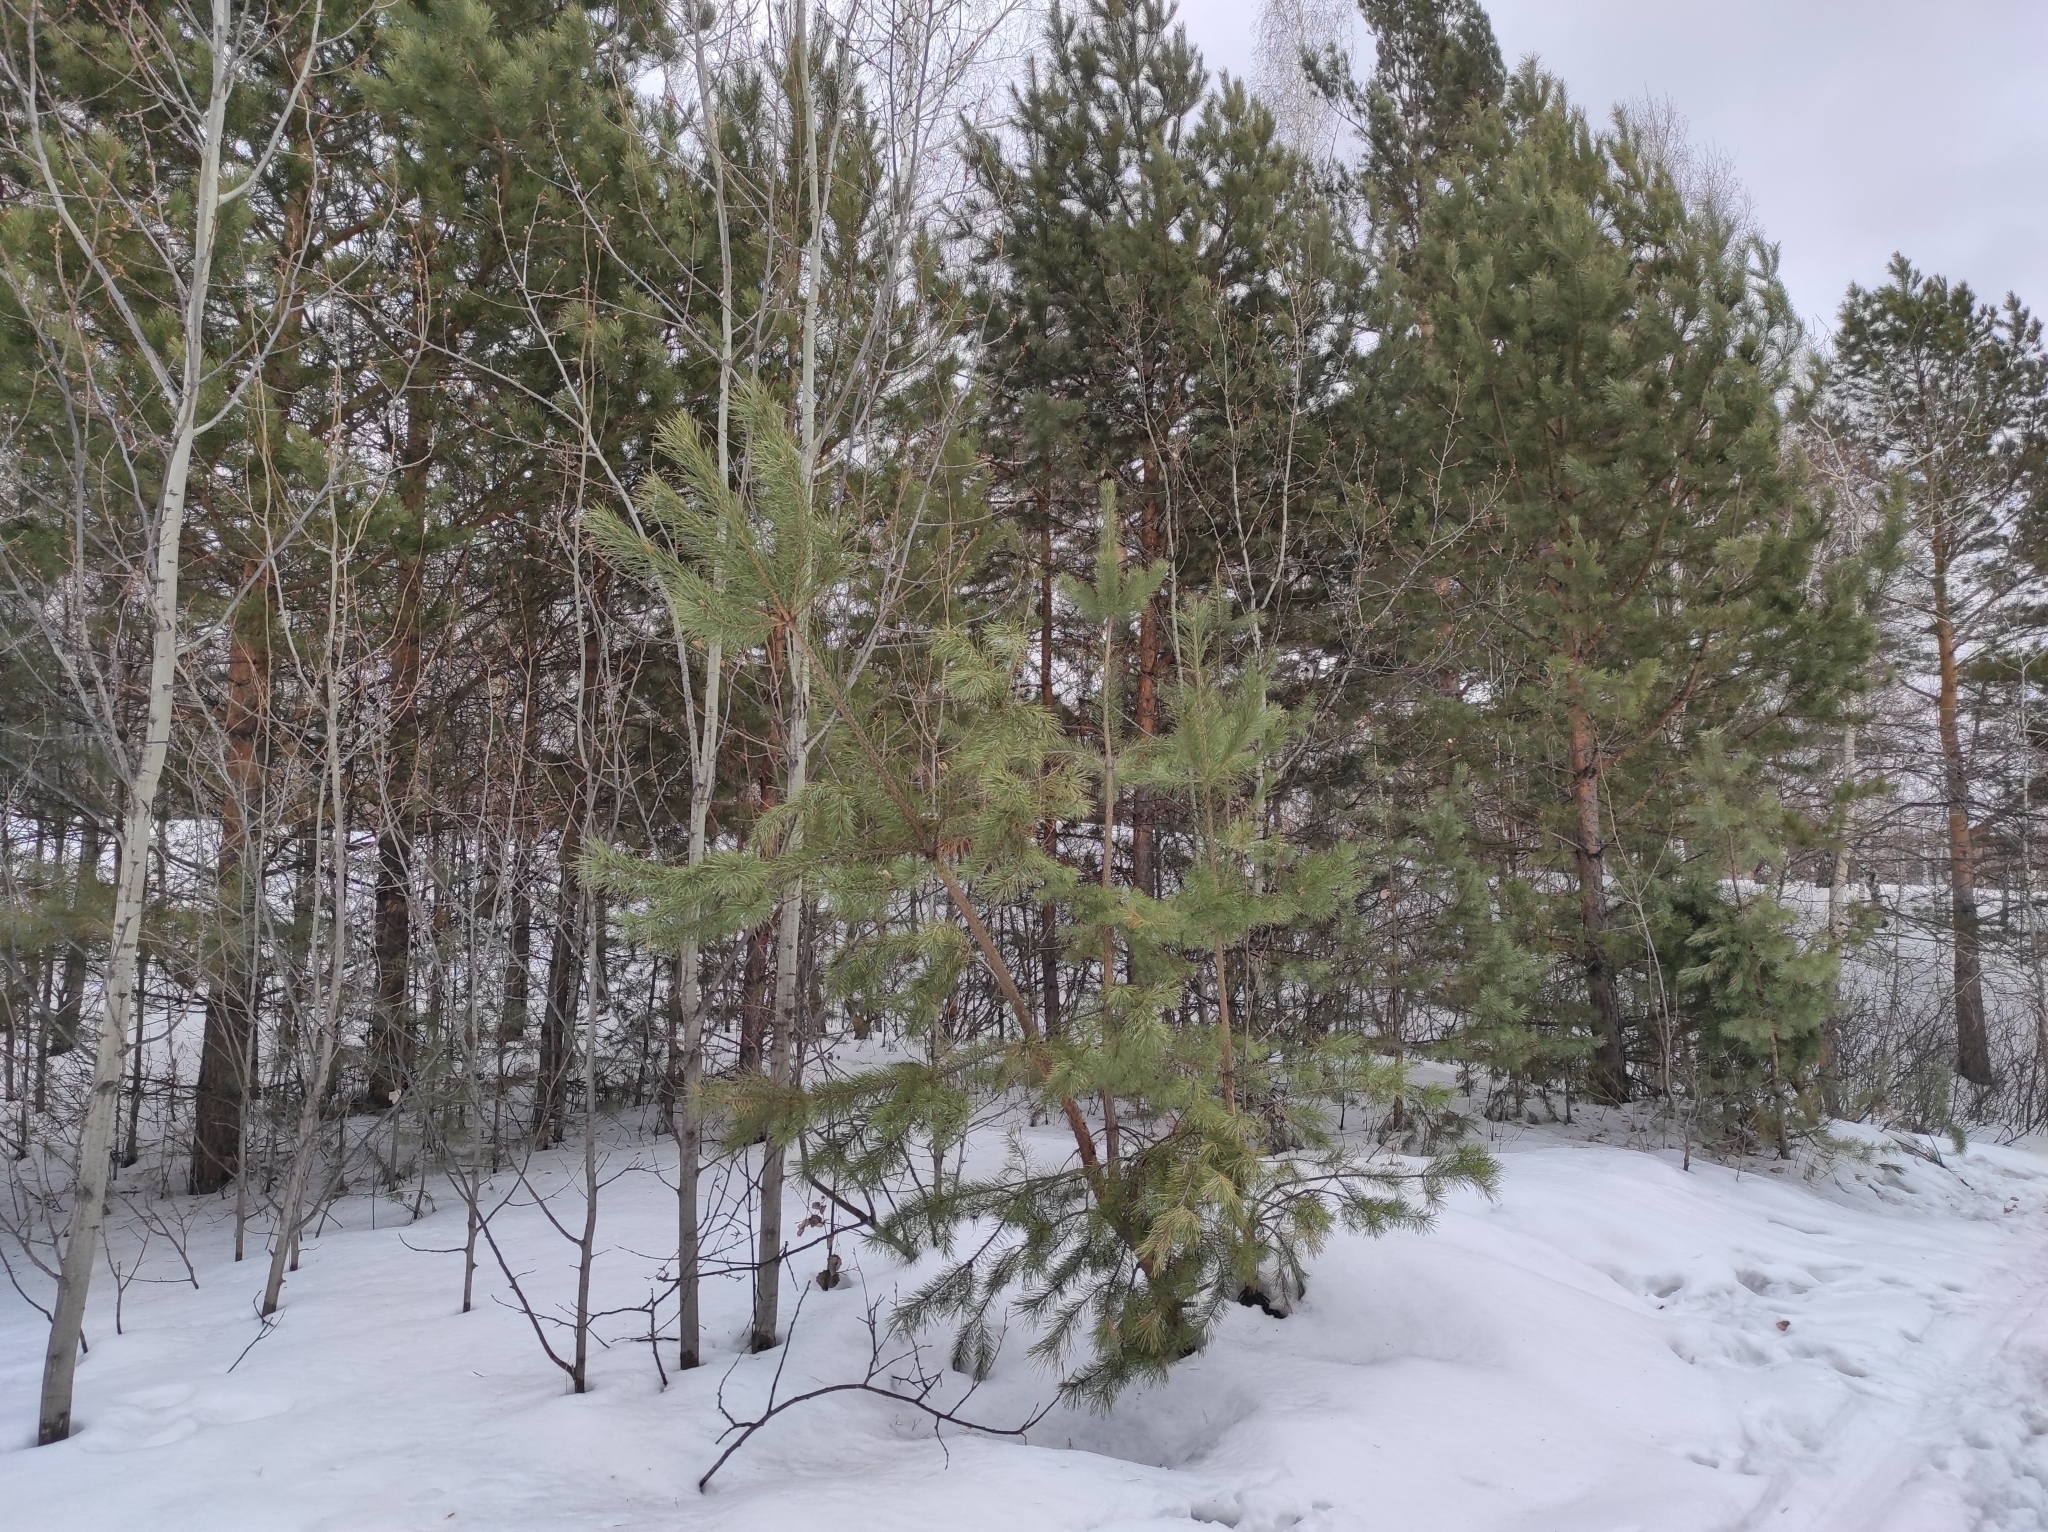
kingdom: Plantae
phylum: Tracheophyta
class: Pinopsida
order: Pinales
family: Pinaceae
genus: Pinus
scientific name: Pinus sylvestris
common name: Scots pine
